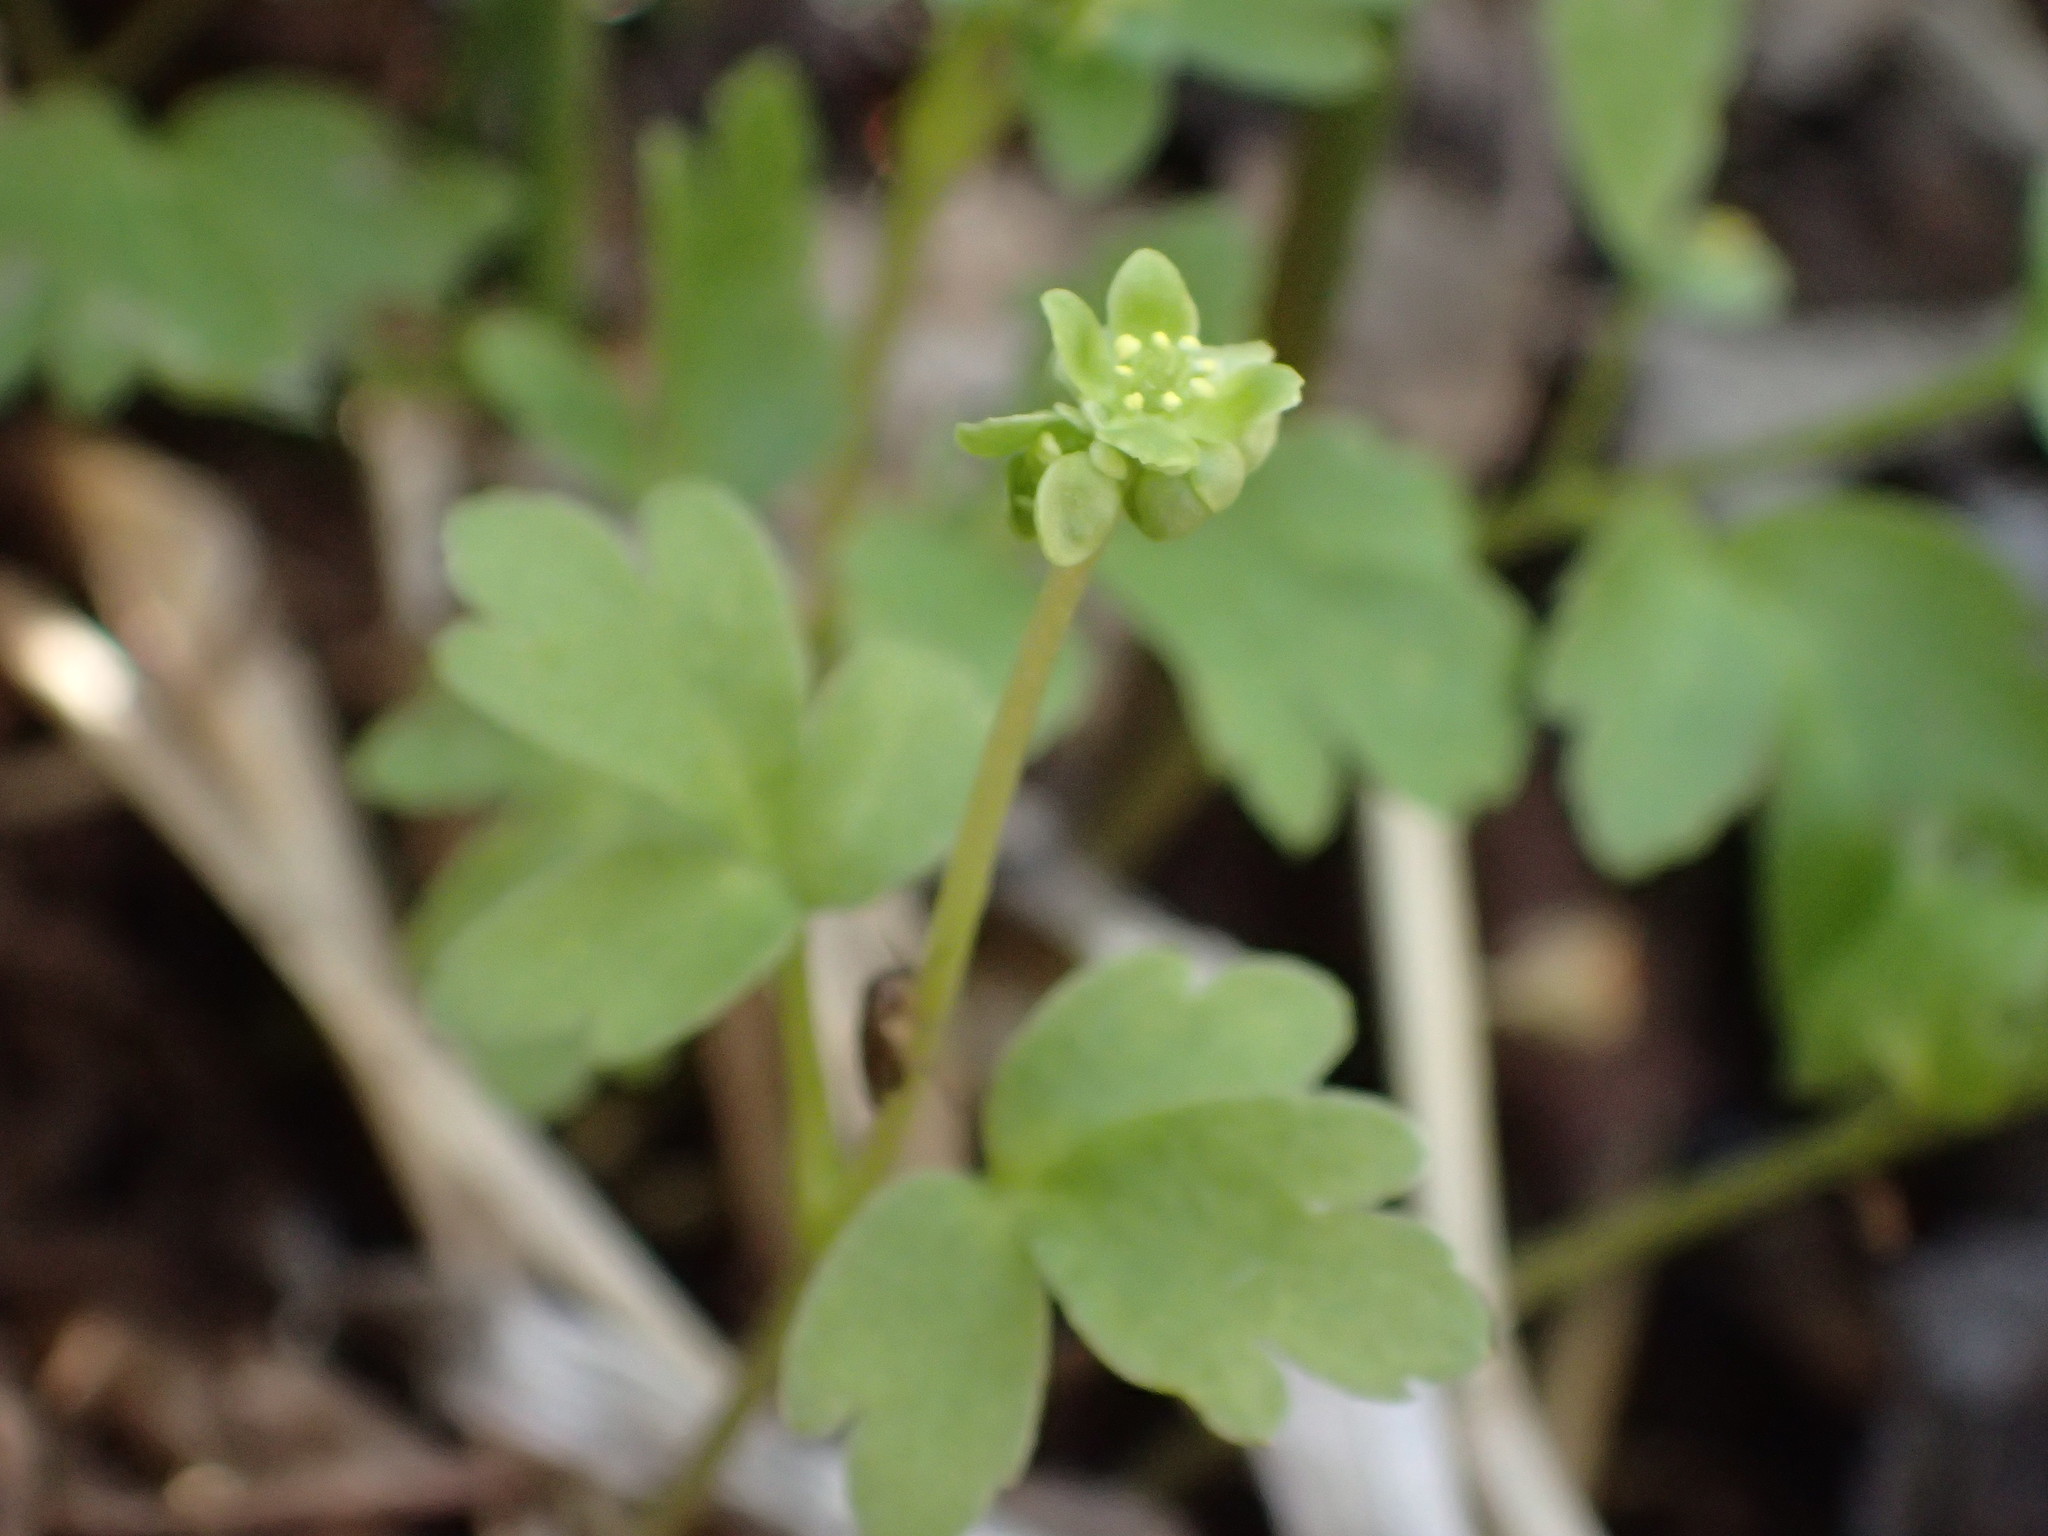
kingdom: Plantae
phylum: Tracheophyta
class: Magnoliopsida
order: Dipsacales
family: Viburnaceae
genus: Adoxa
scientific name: Adoxa moschatellina
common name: Moschatel
